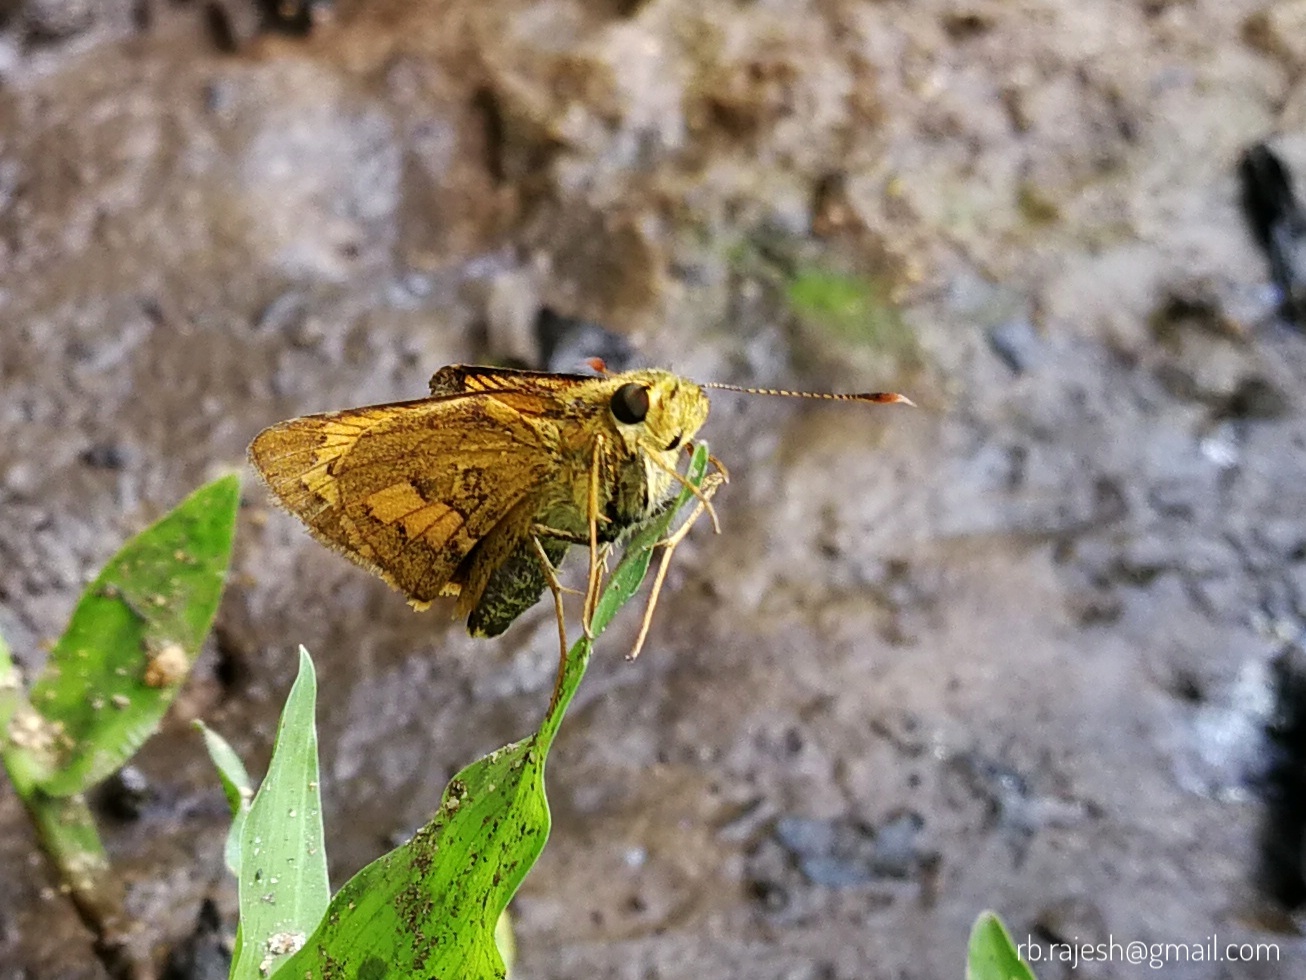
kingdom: Animalia
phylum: Arthropoda
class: Insecta
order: Lepidoptera
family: Hesperiidae
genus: Telicota
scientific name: Telicota bambusae
